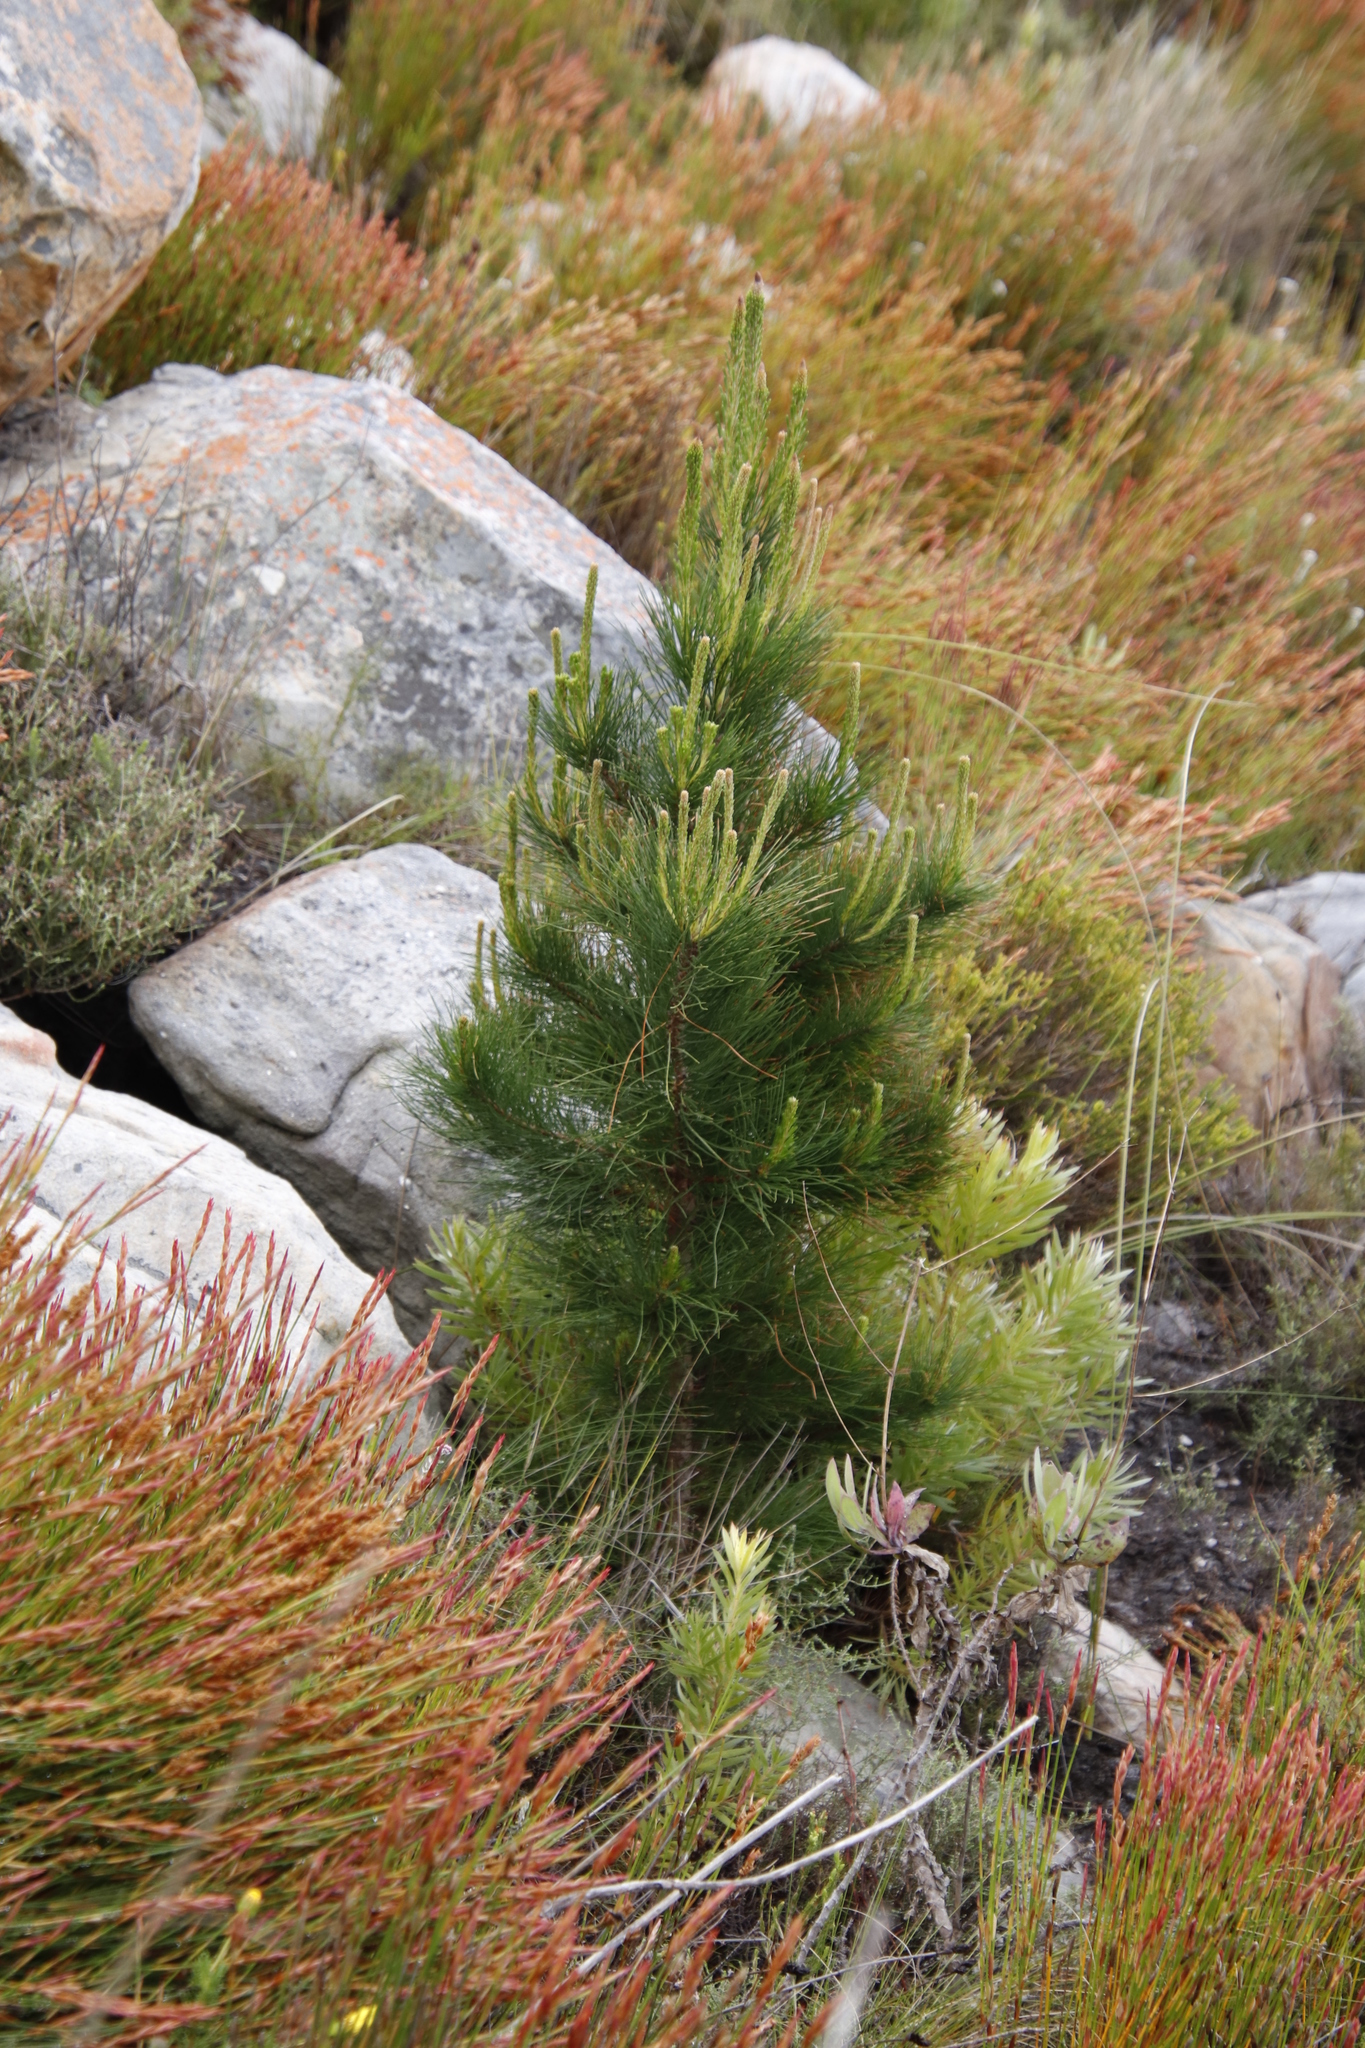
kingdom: Plantae
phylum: Tracheophyta
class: Pinopsida
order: Pinales
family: Pinaceae
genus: Pinus
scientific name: Pinus radiata
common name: Monterey pine
